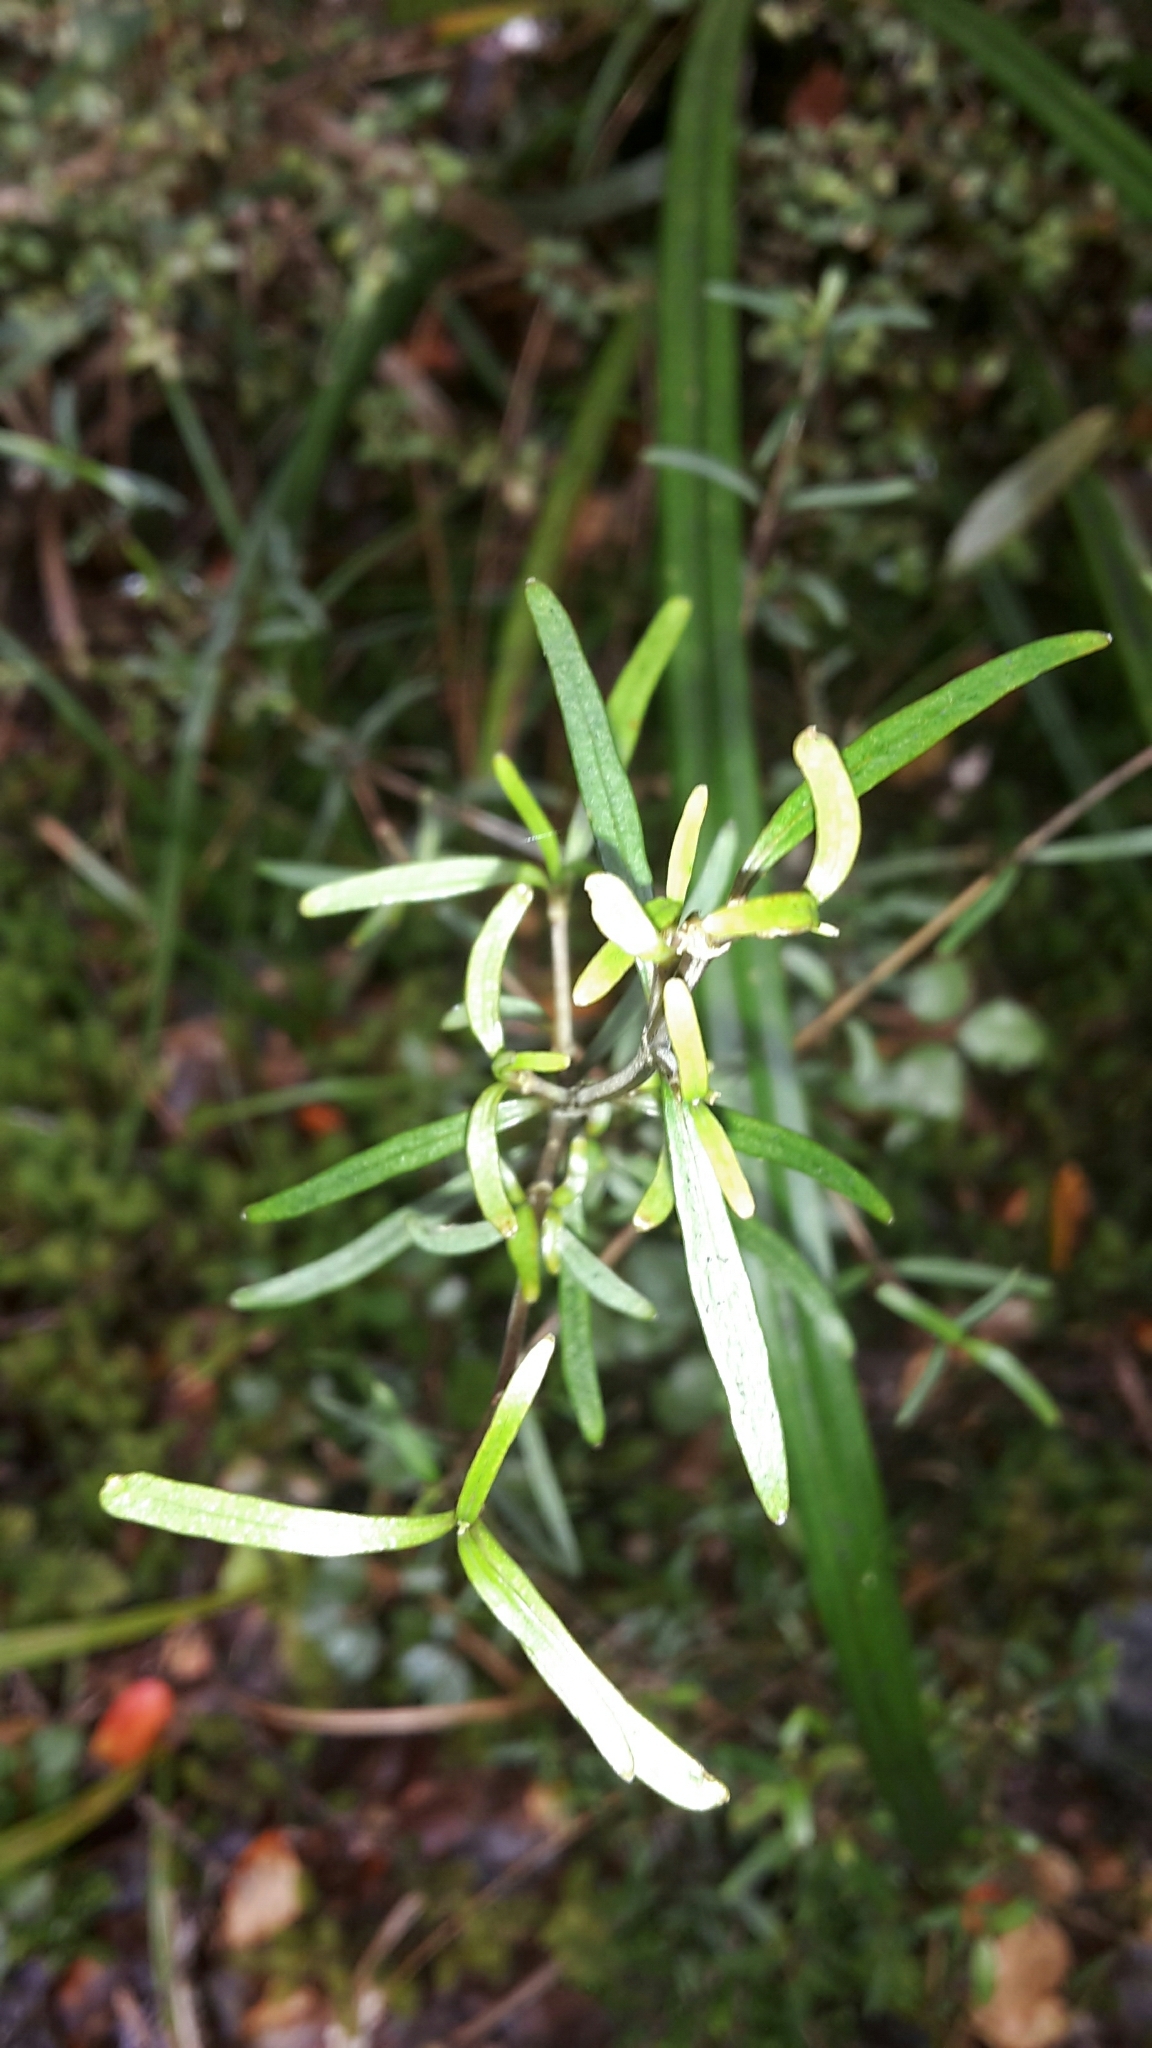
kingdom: Plantae
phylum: Tracheophyta
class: Magnoliopsida
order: Gentianales
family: Rubiaceae
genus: Coprosma
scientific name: Coprosma linariifolia
